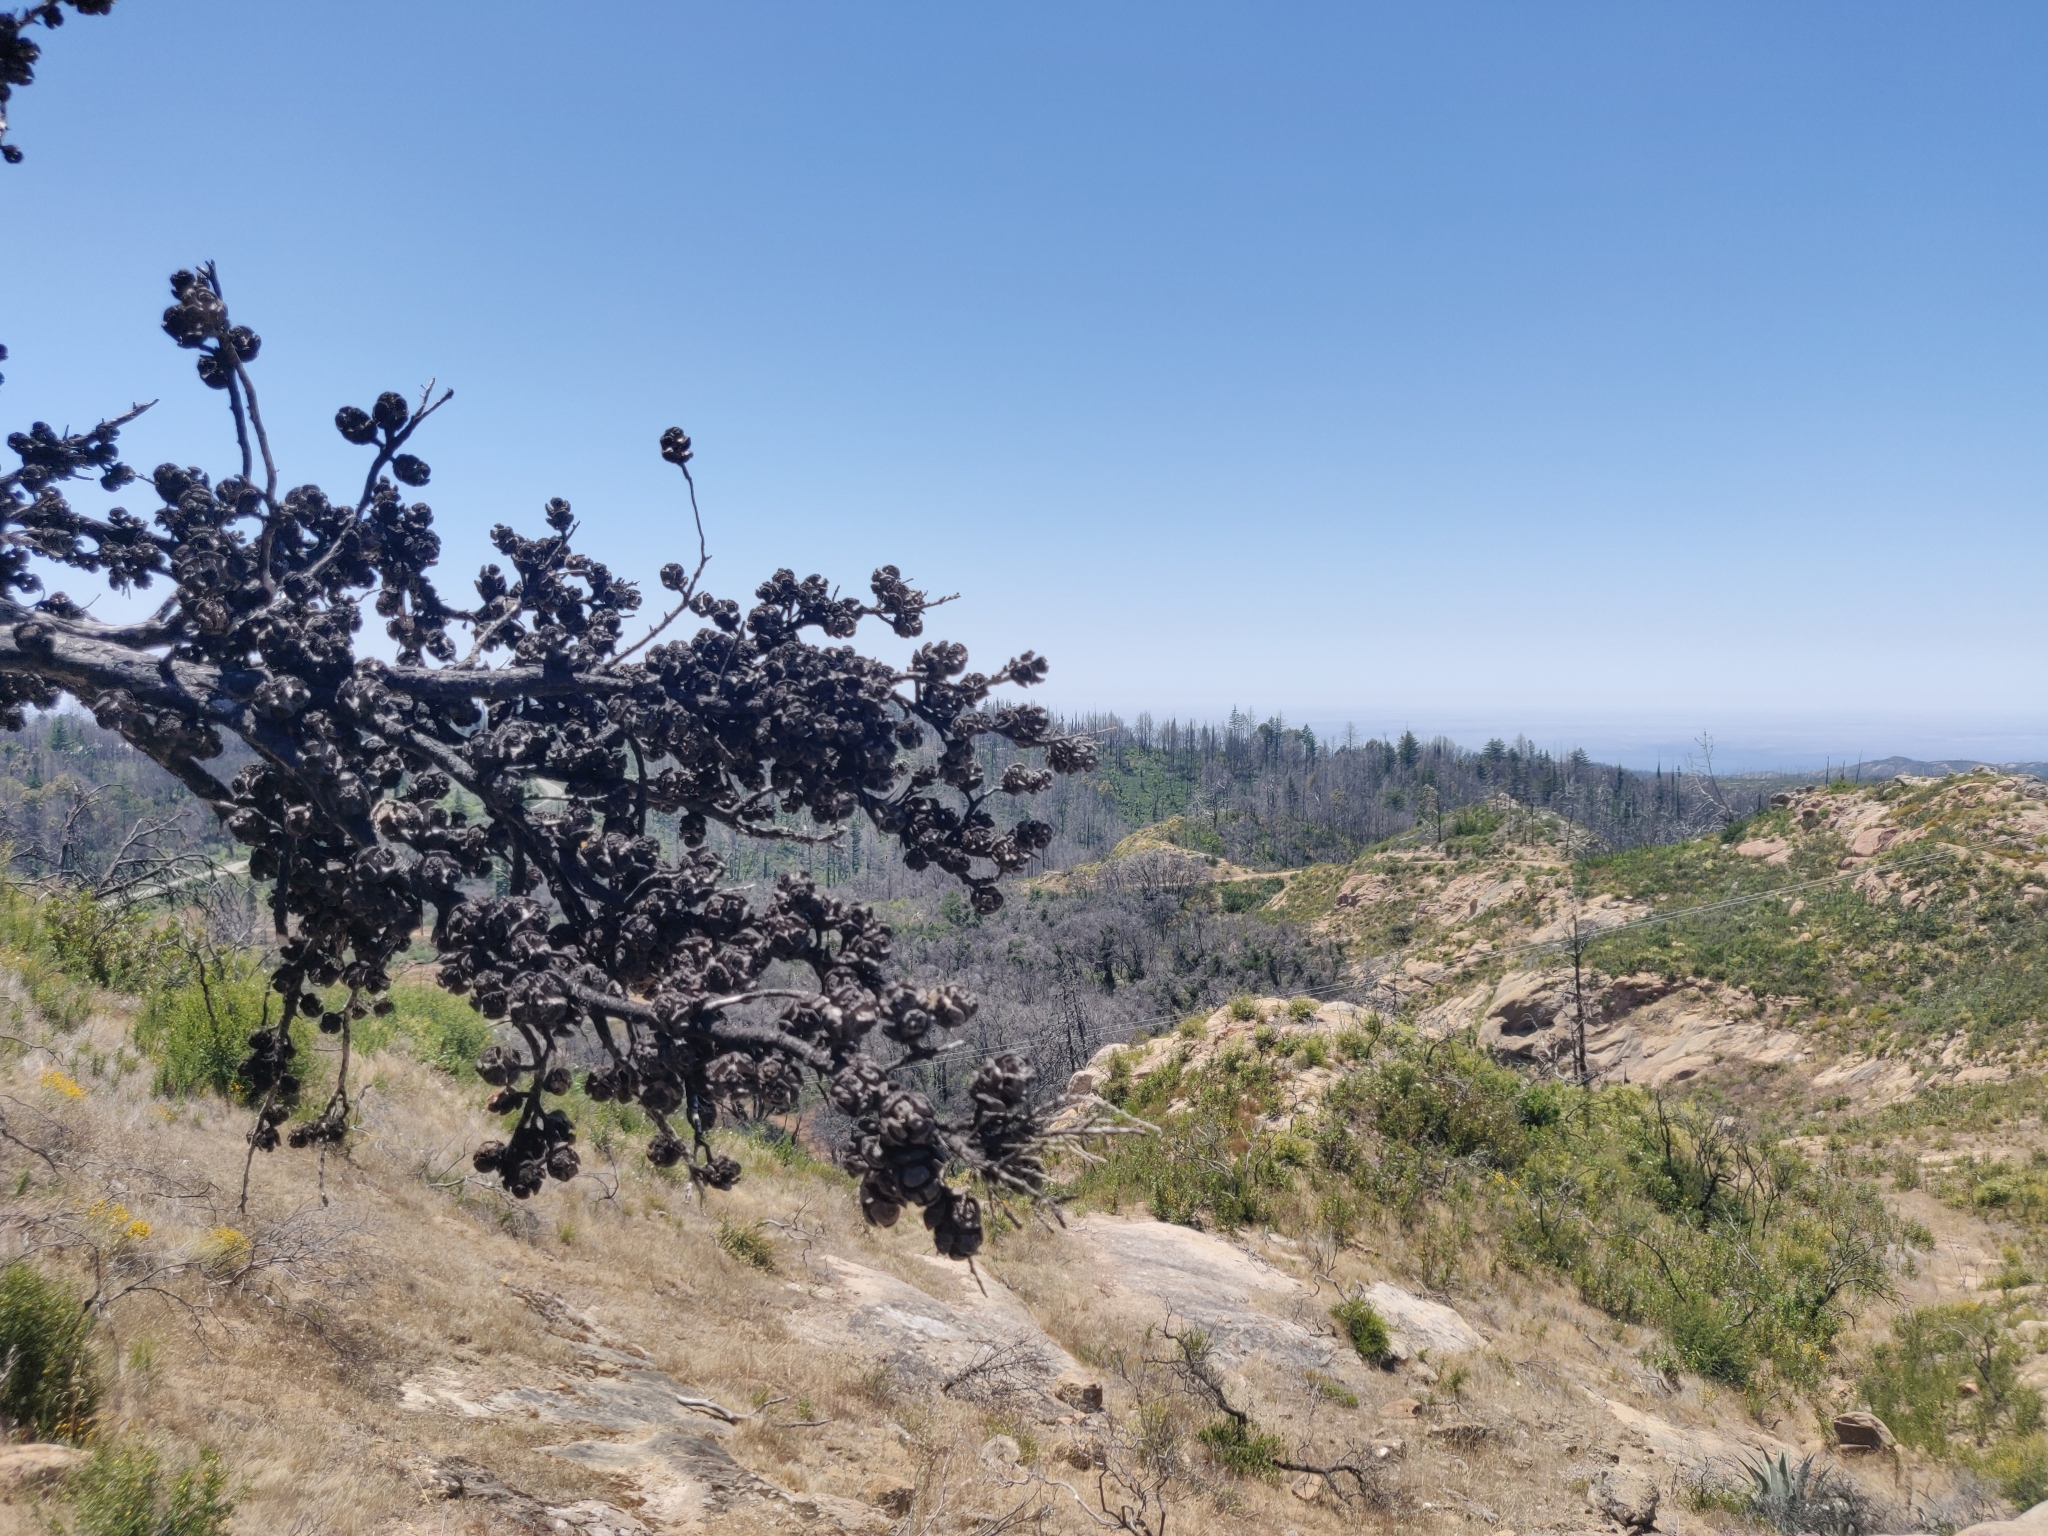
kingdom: Plantae
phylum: Tracheophyta
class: Pinopsida
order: Pinales
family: Cupressaceae
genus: Cupressus
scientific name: Cupressus goveniana
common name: Gowen cypress
